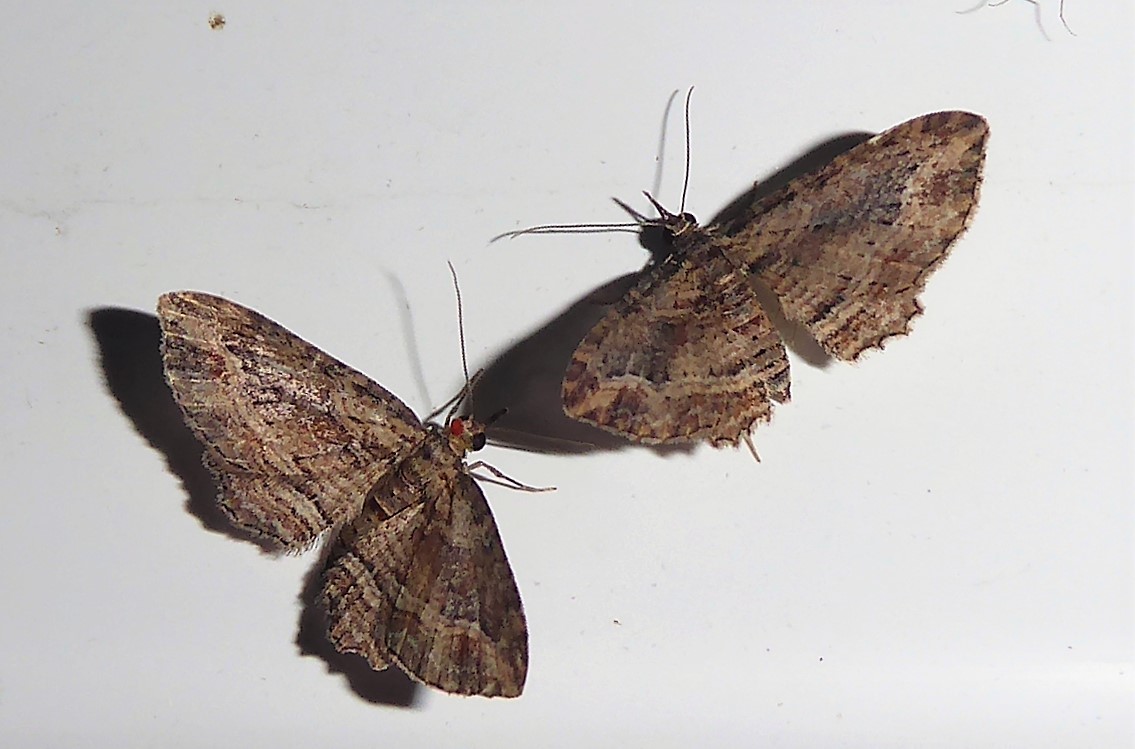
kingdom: Animalia
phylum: Arthropoda
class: Insecta
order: Lepidoptera
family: Geometridae
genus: Chloroclystis
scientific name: Chloroclystis filata
